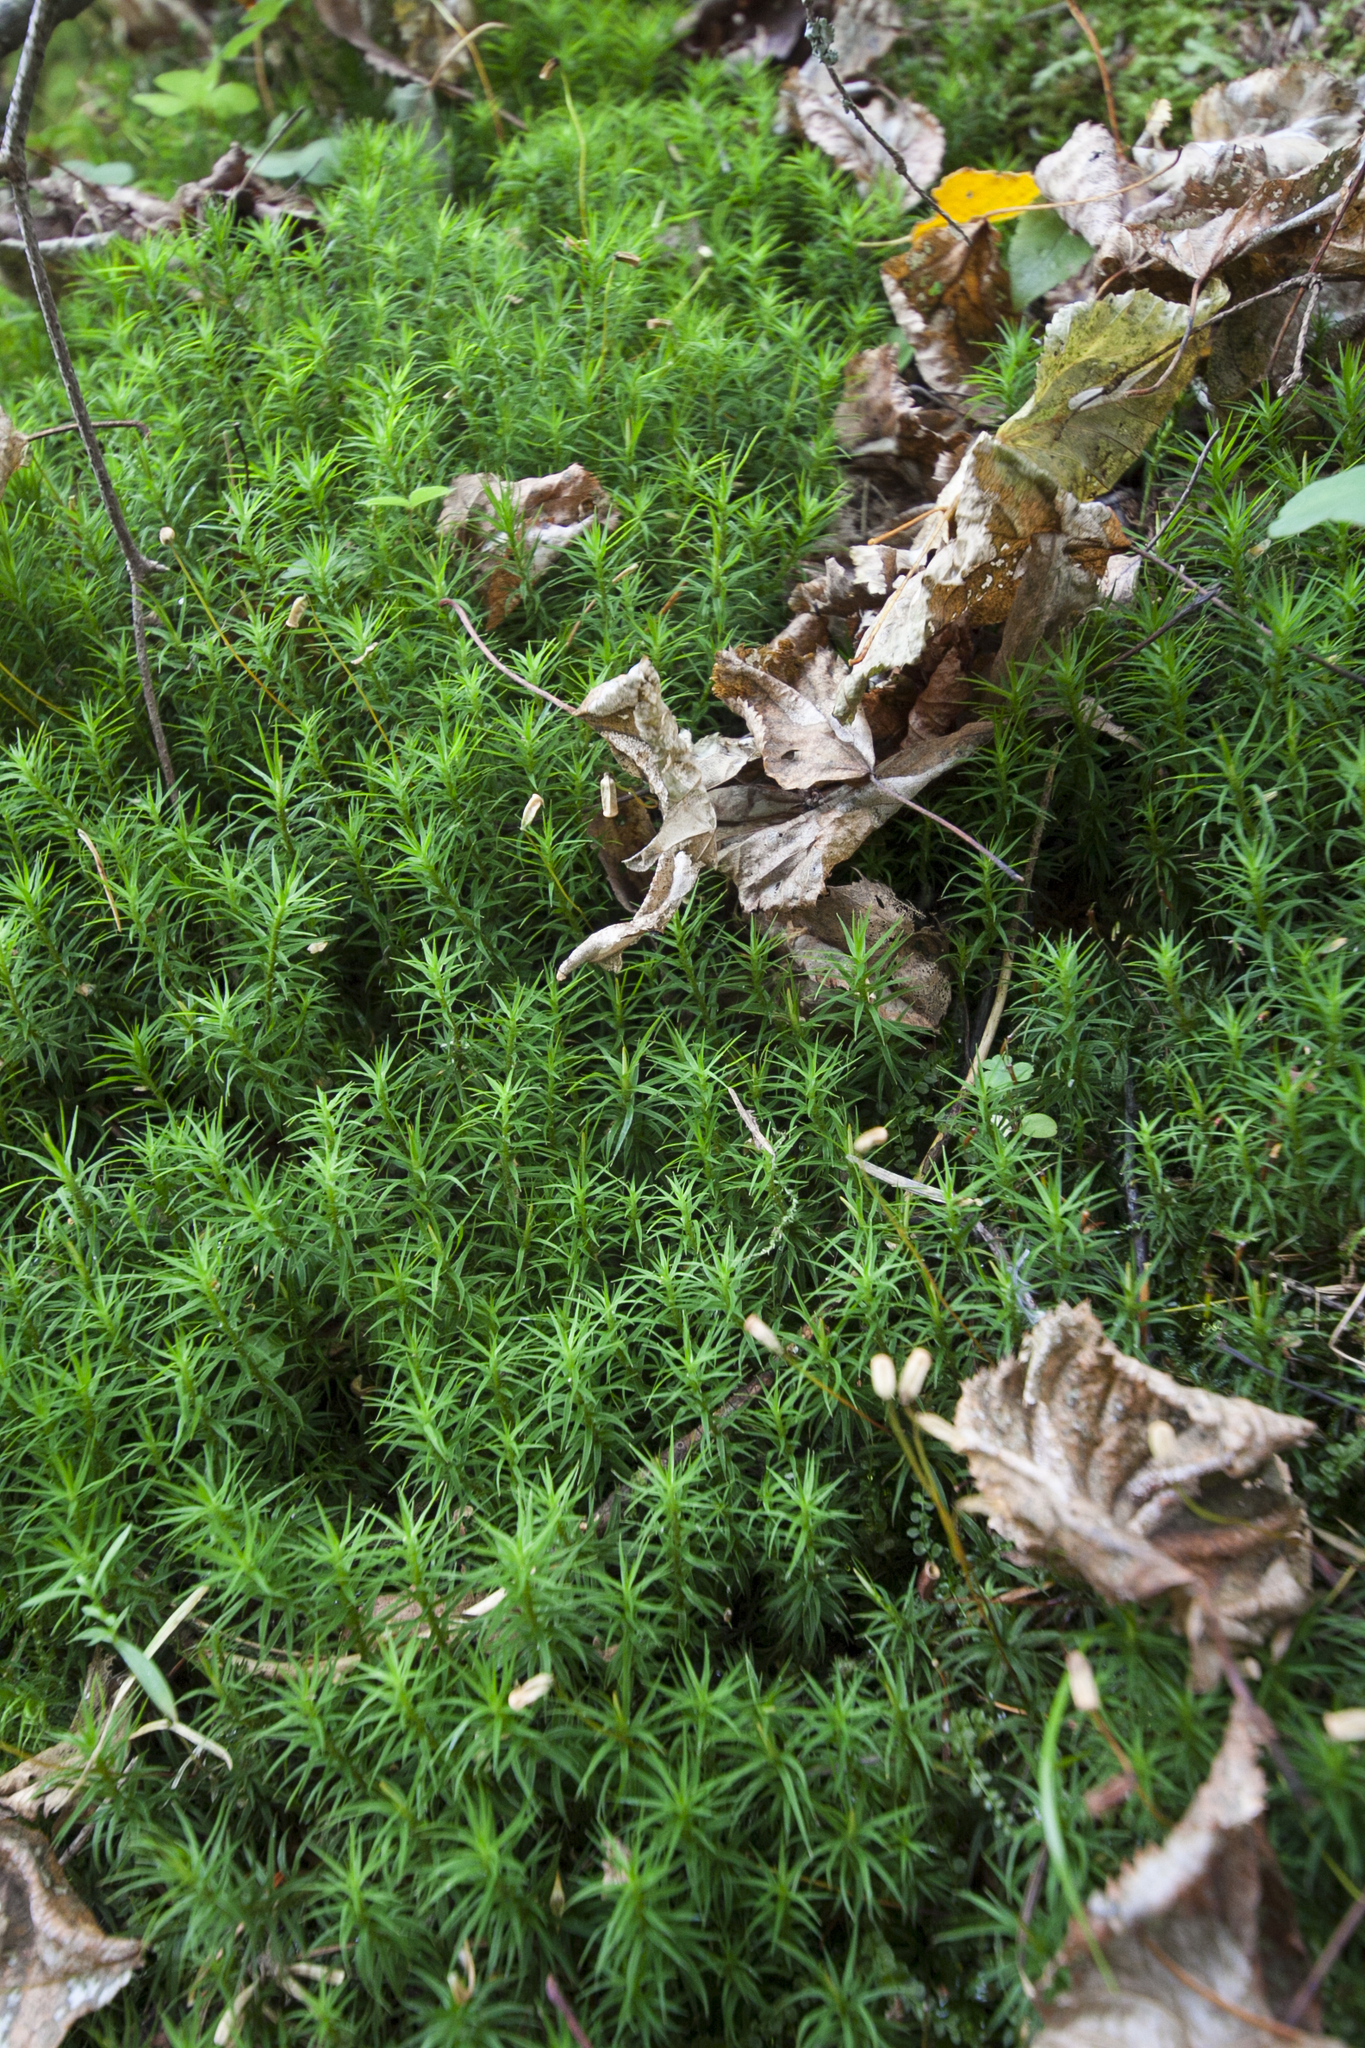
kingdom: Plantae
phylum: Bryophyta
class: Polytrichopsida
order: Polytrichales
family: Polytrichaceae
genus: Polytrichum
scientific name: Polytrichum formosum
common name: Bank haircap moss
